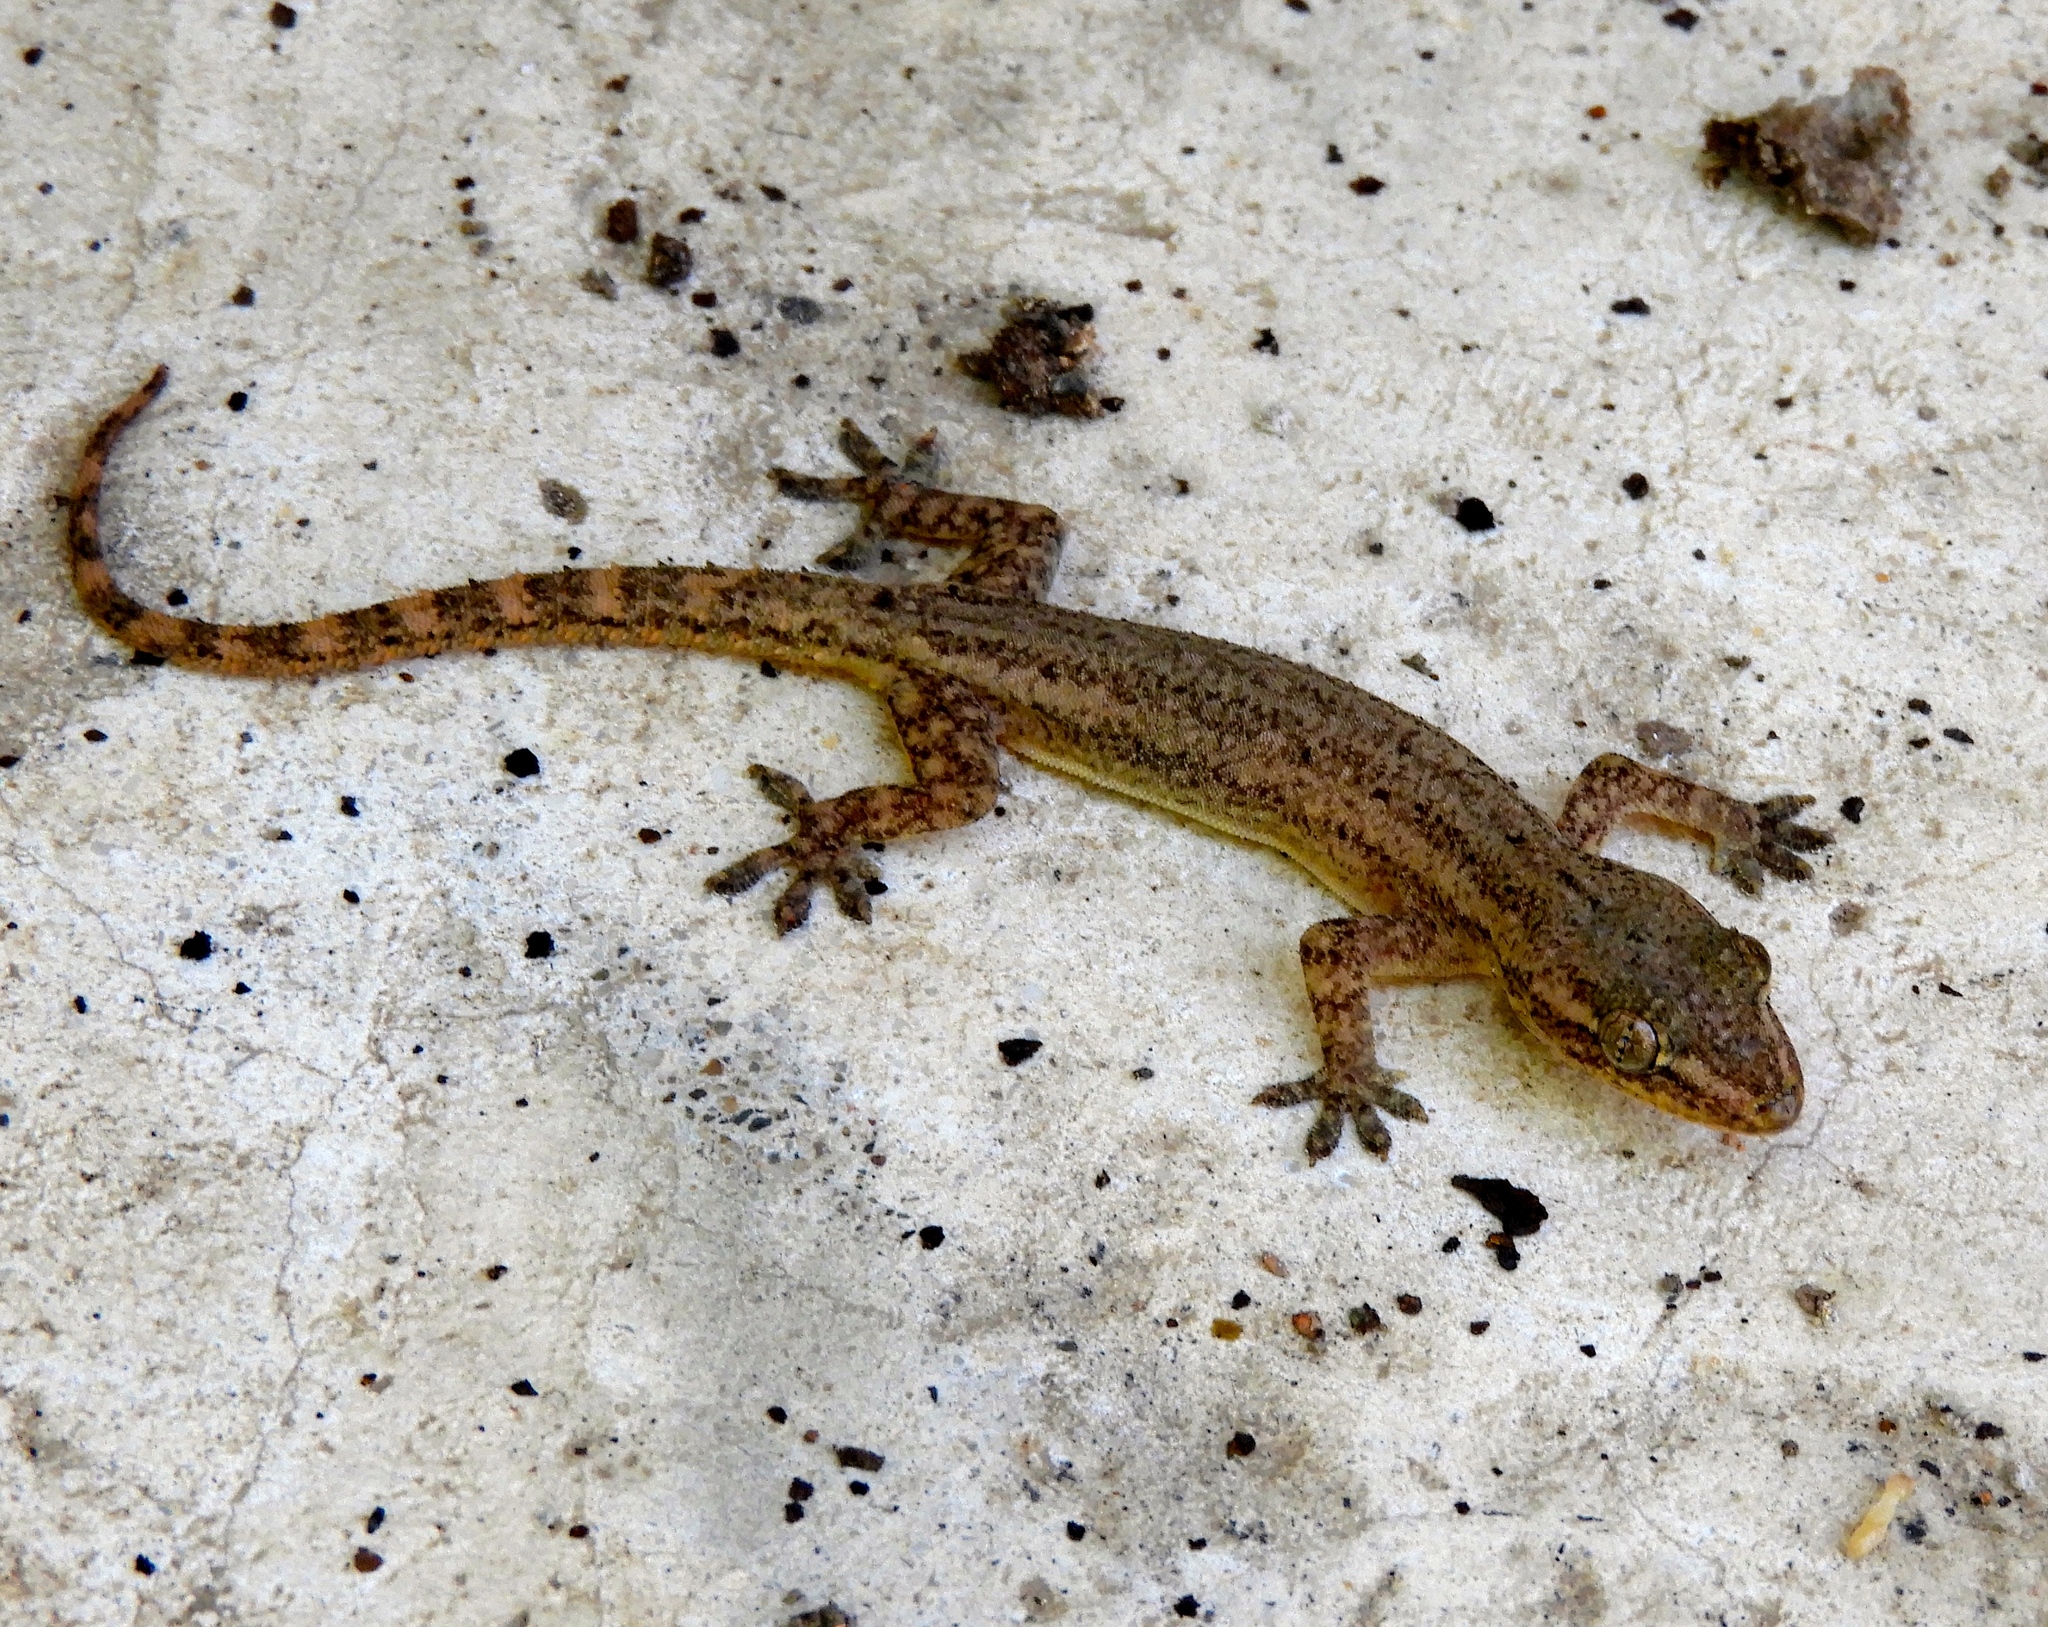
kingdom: Animalia
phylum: Chordata
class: Squamata
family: Gekkonidae
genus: Hemidactylus
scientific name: Hemidactylus frenatus
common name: Common house gecko
